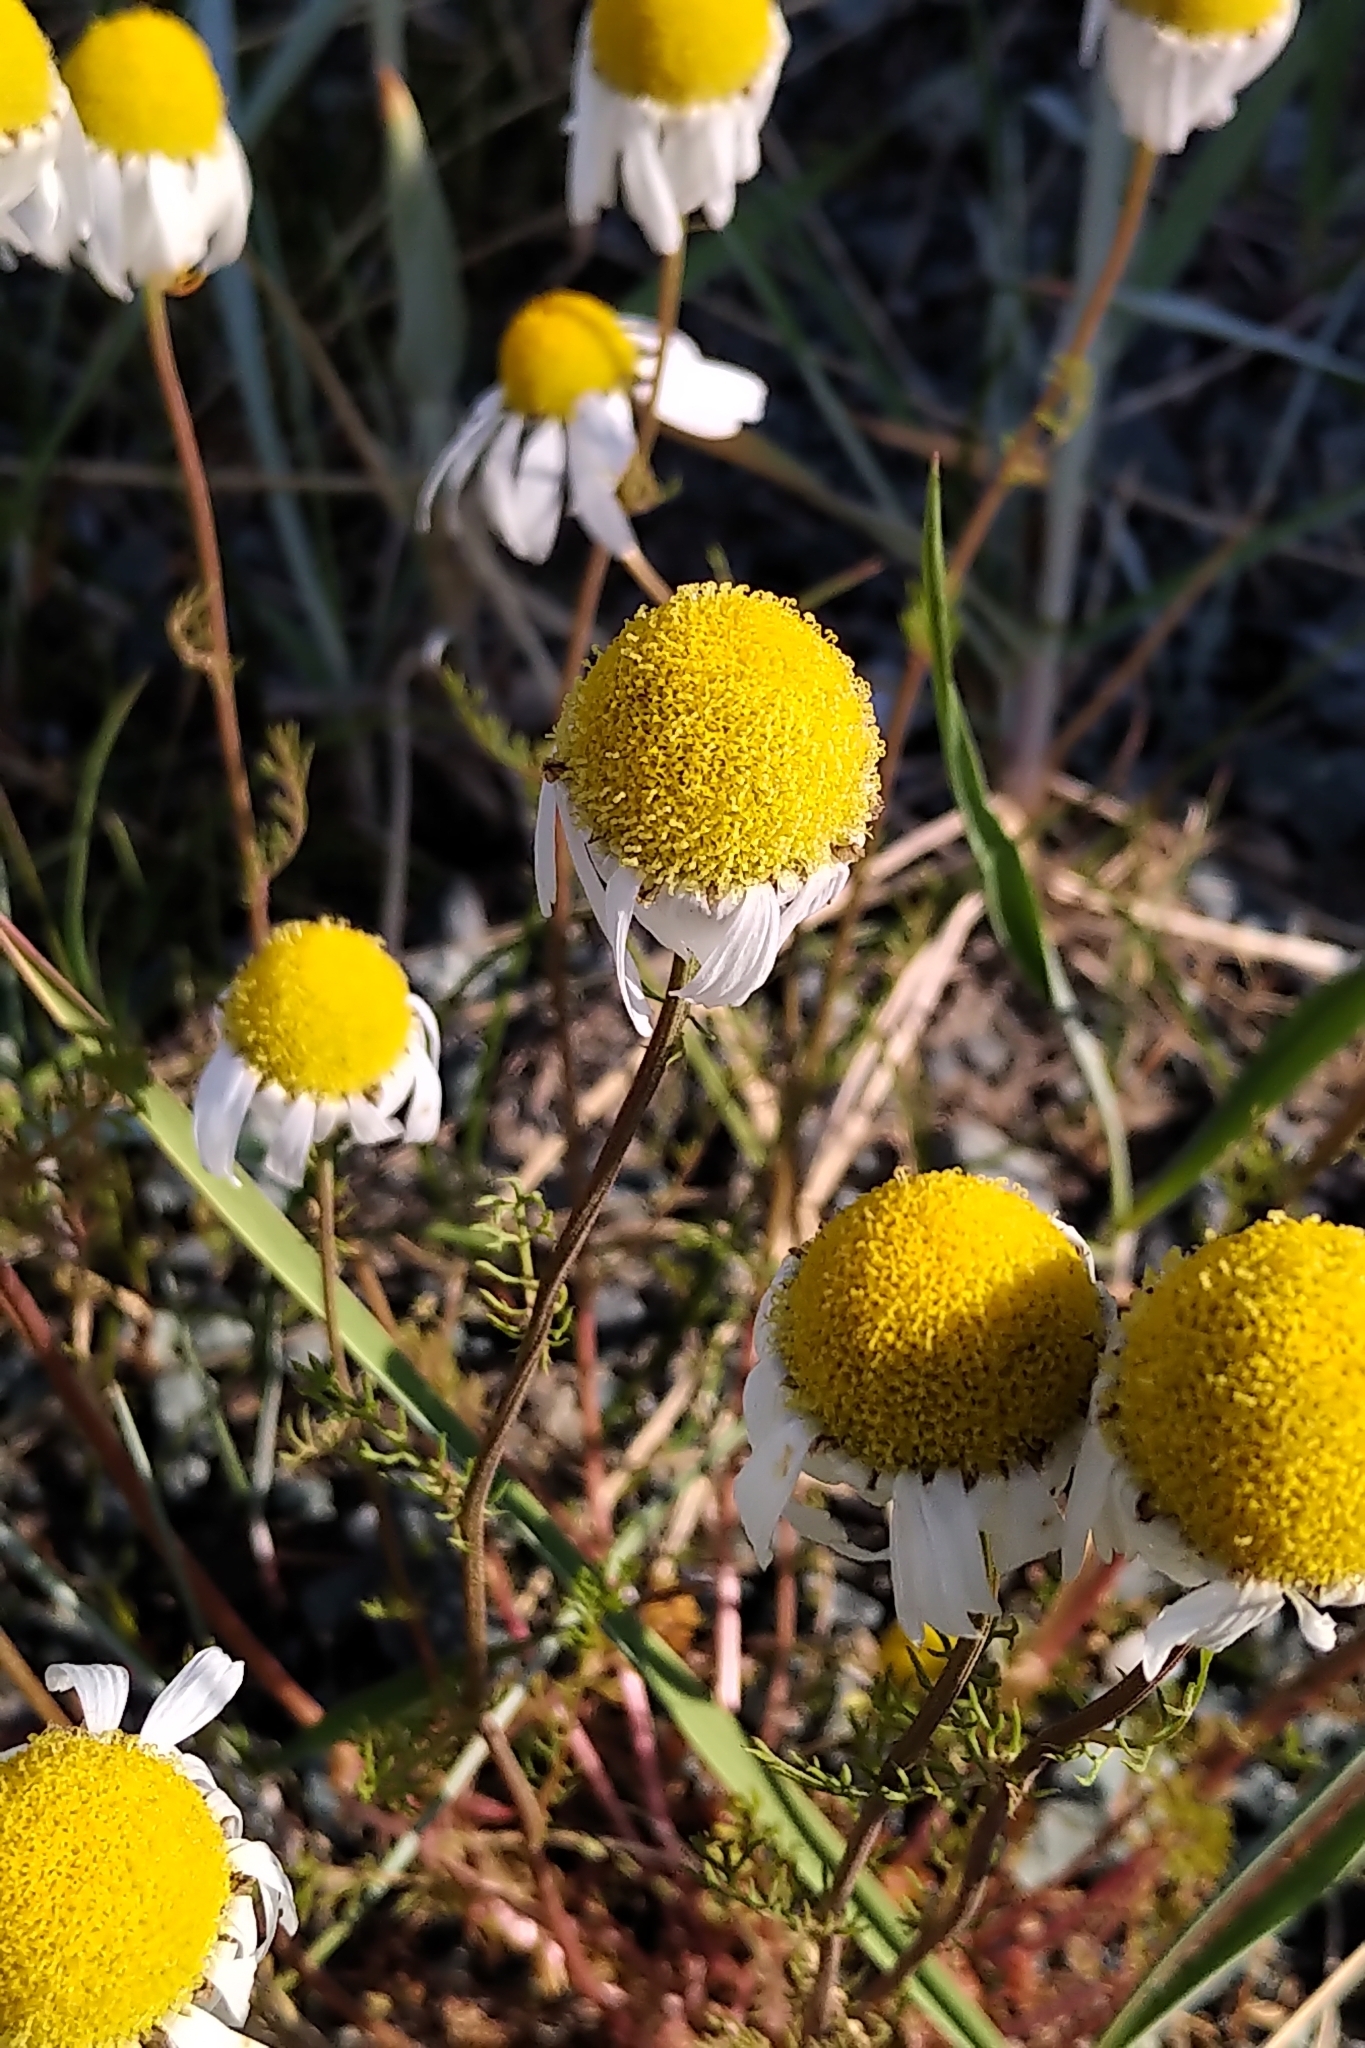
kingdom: Plantae
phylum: Tracheophyta
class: Magnoliopsida
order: Asterales
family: Asteraceae
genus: Tripleurospermum
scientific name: Tripleurospermum maritimum
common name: Sea mayweed
